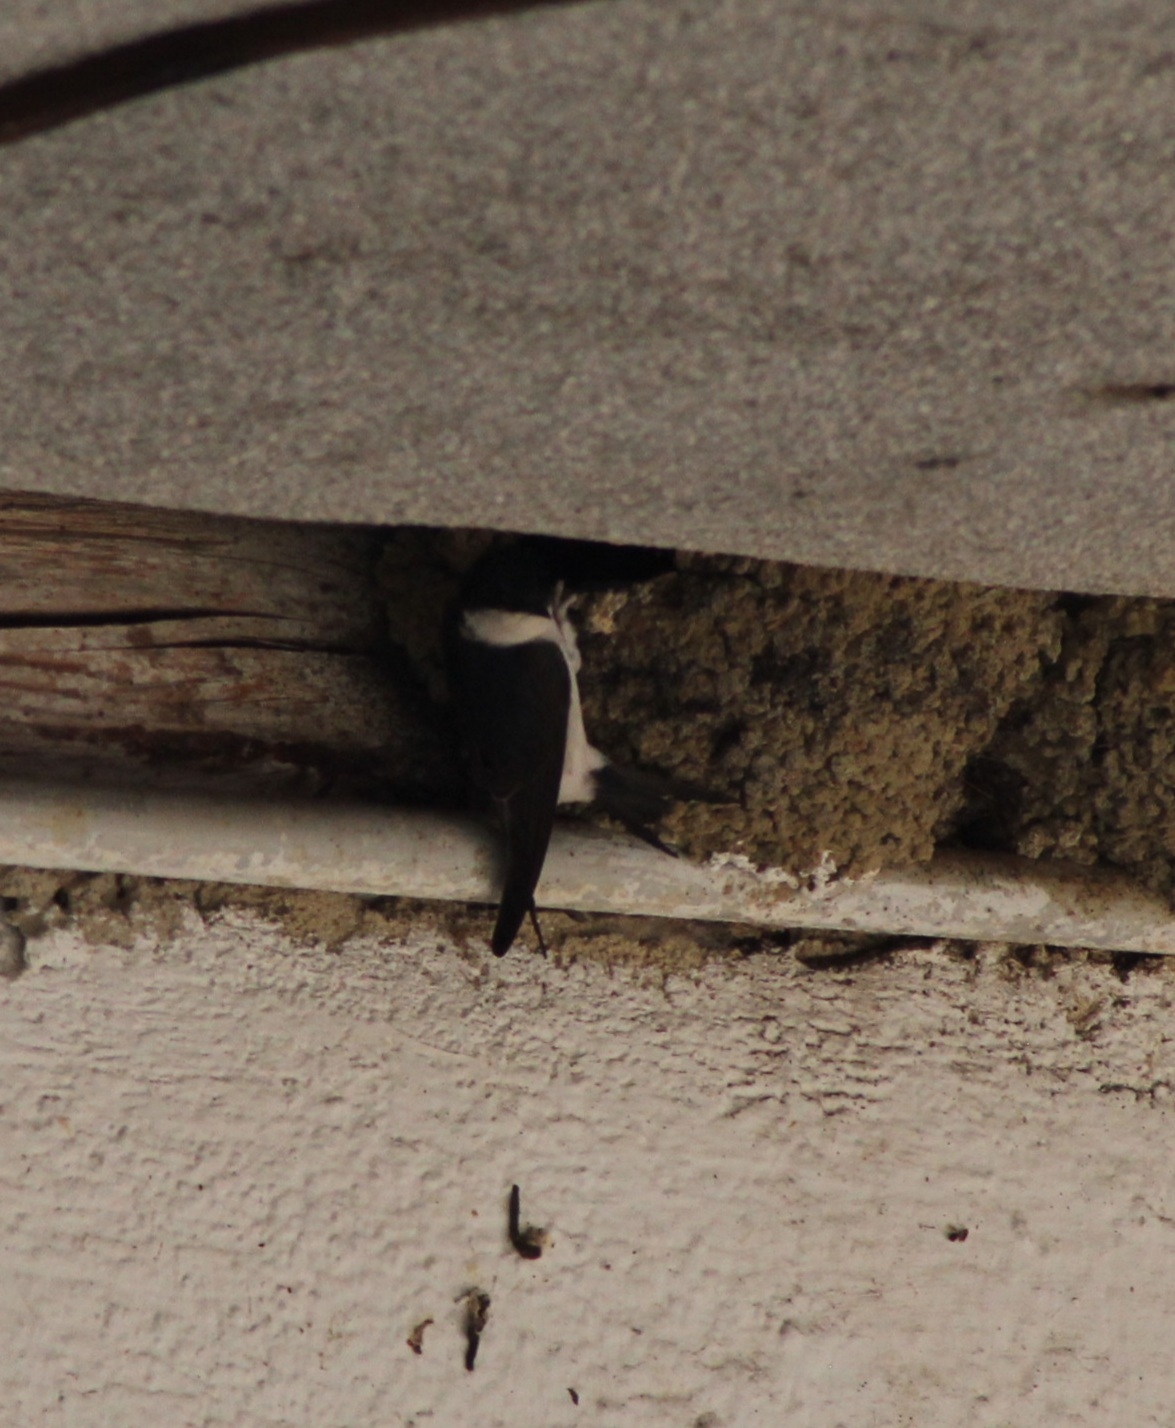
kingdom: Animalia
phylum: Chordata
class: Aves
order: Passeriformes
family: Hirundinidae
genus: Delichon
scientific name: Delichon urbicum
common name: Common house martin
